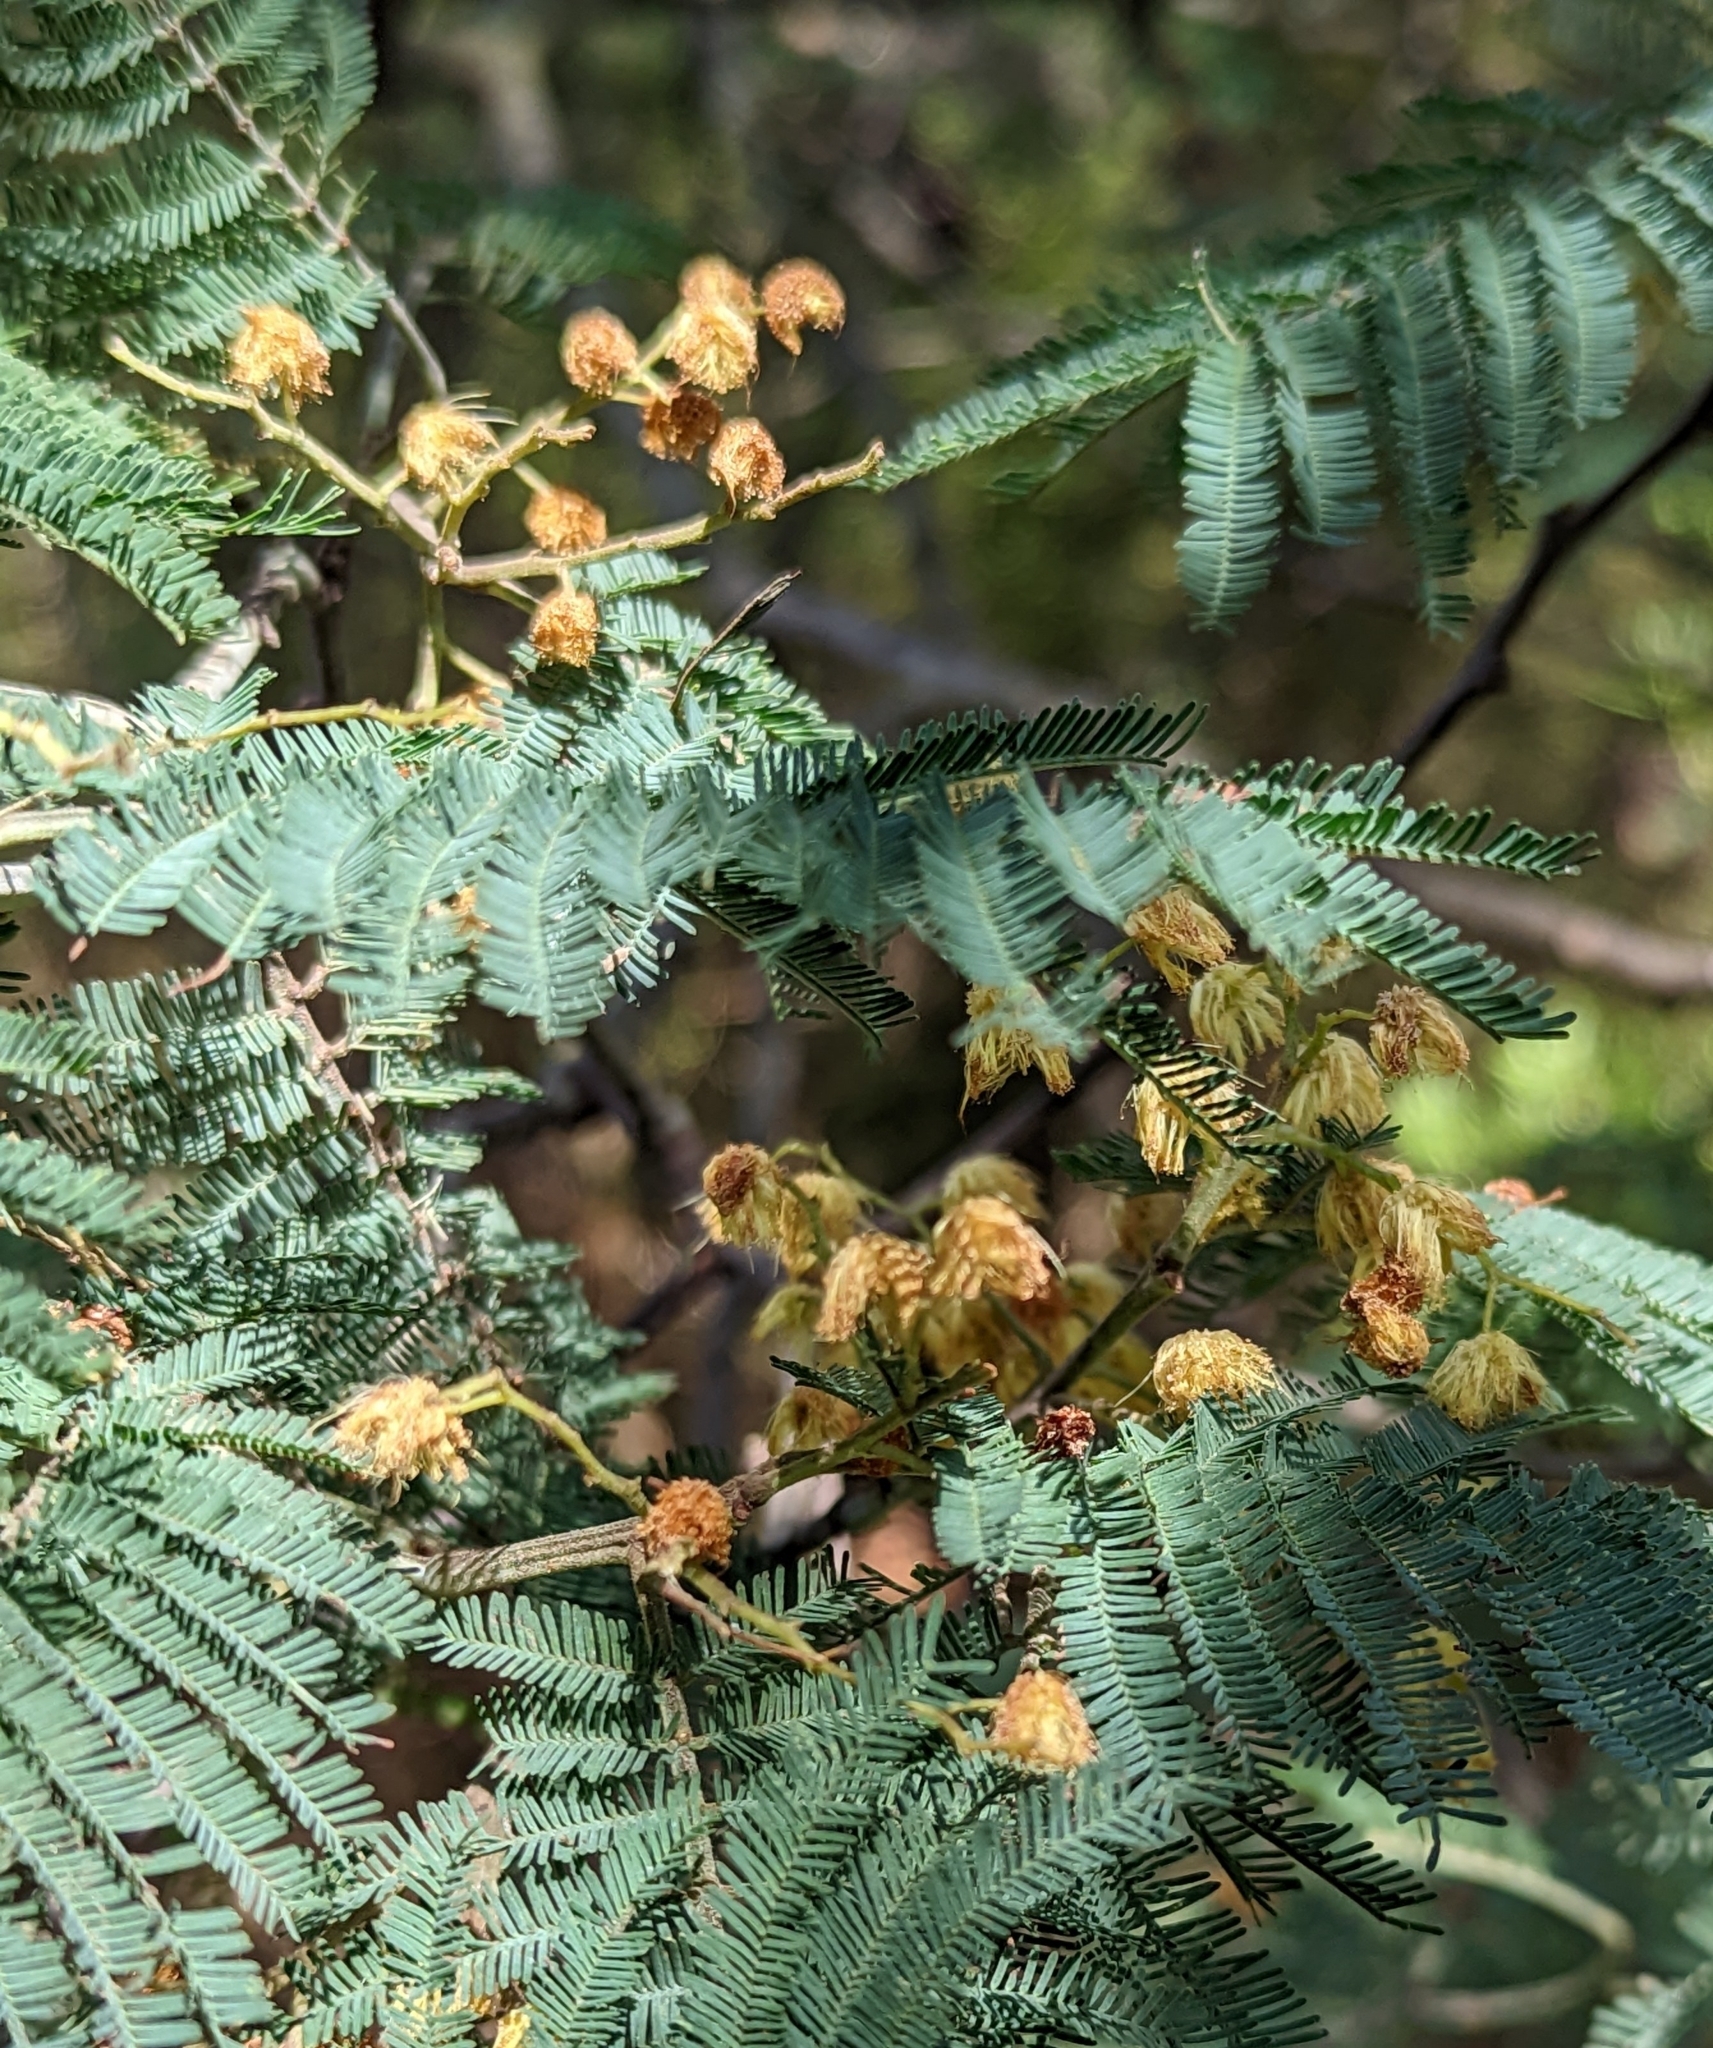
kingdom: Plantae
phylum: Tracheophyta
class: Magnoliopsida
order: Fabales
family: Fabaceae
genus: Acacia
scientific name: Acacia dealbata
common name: Silver wattle
